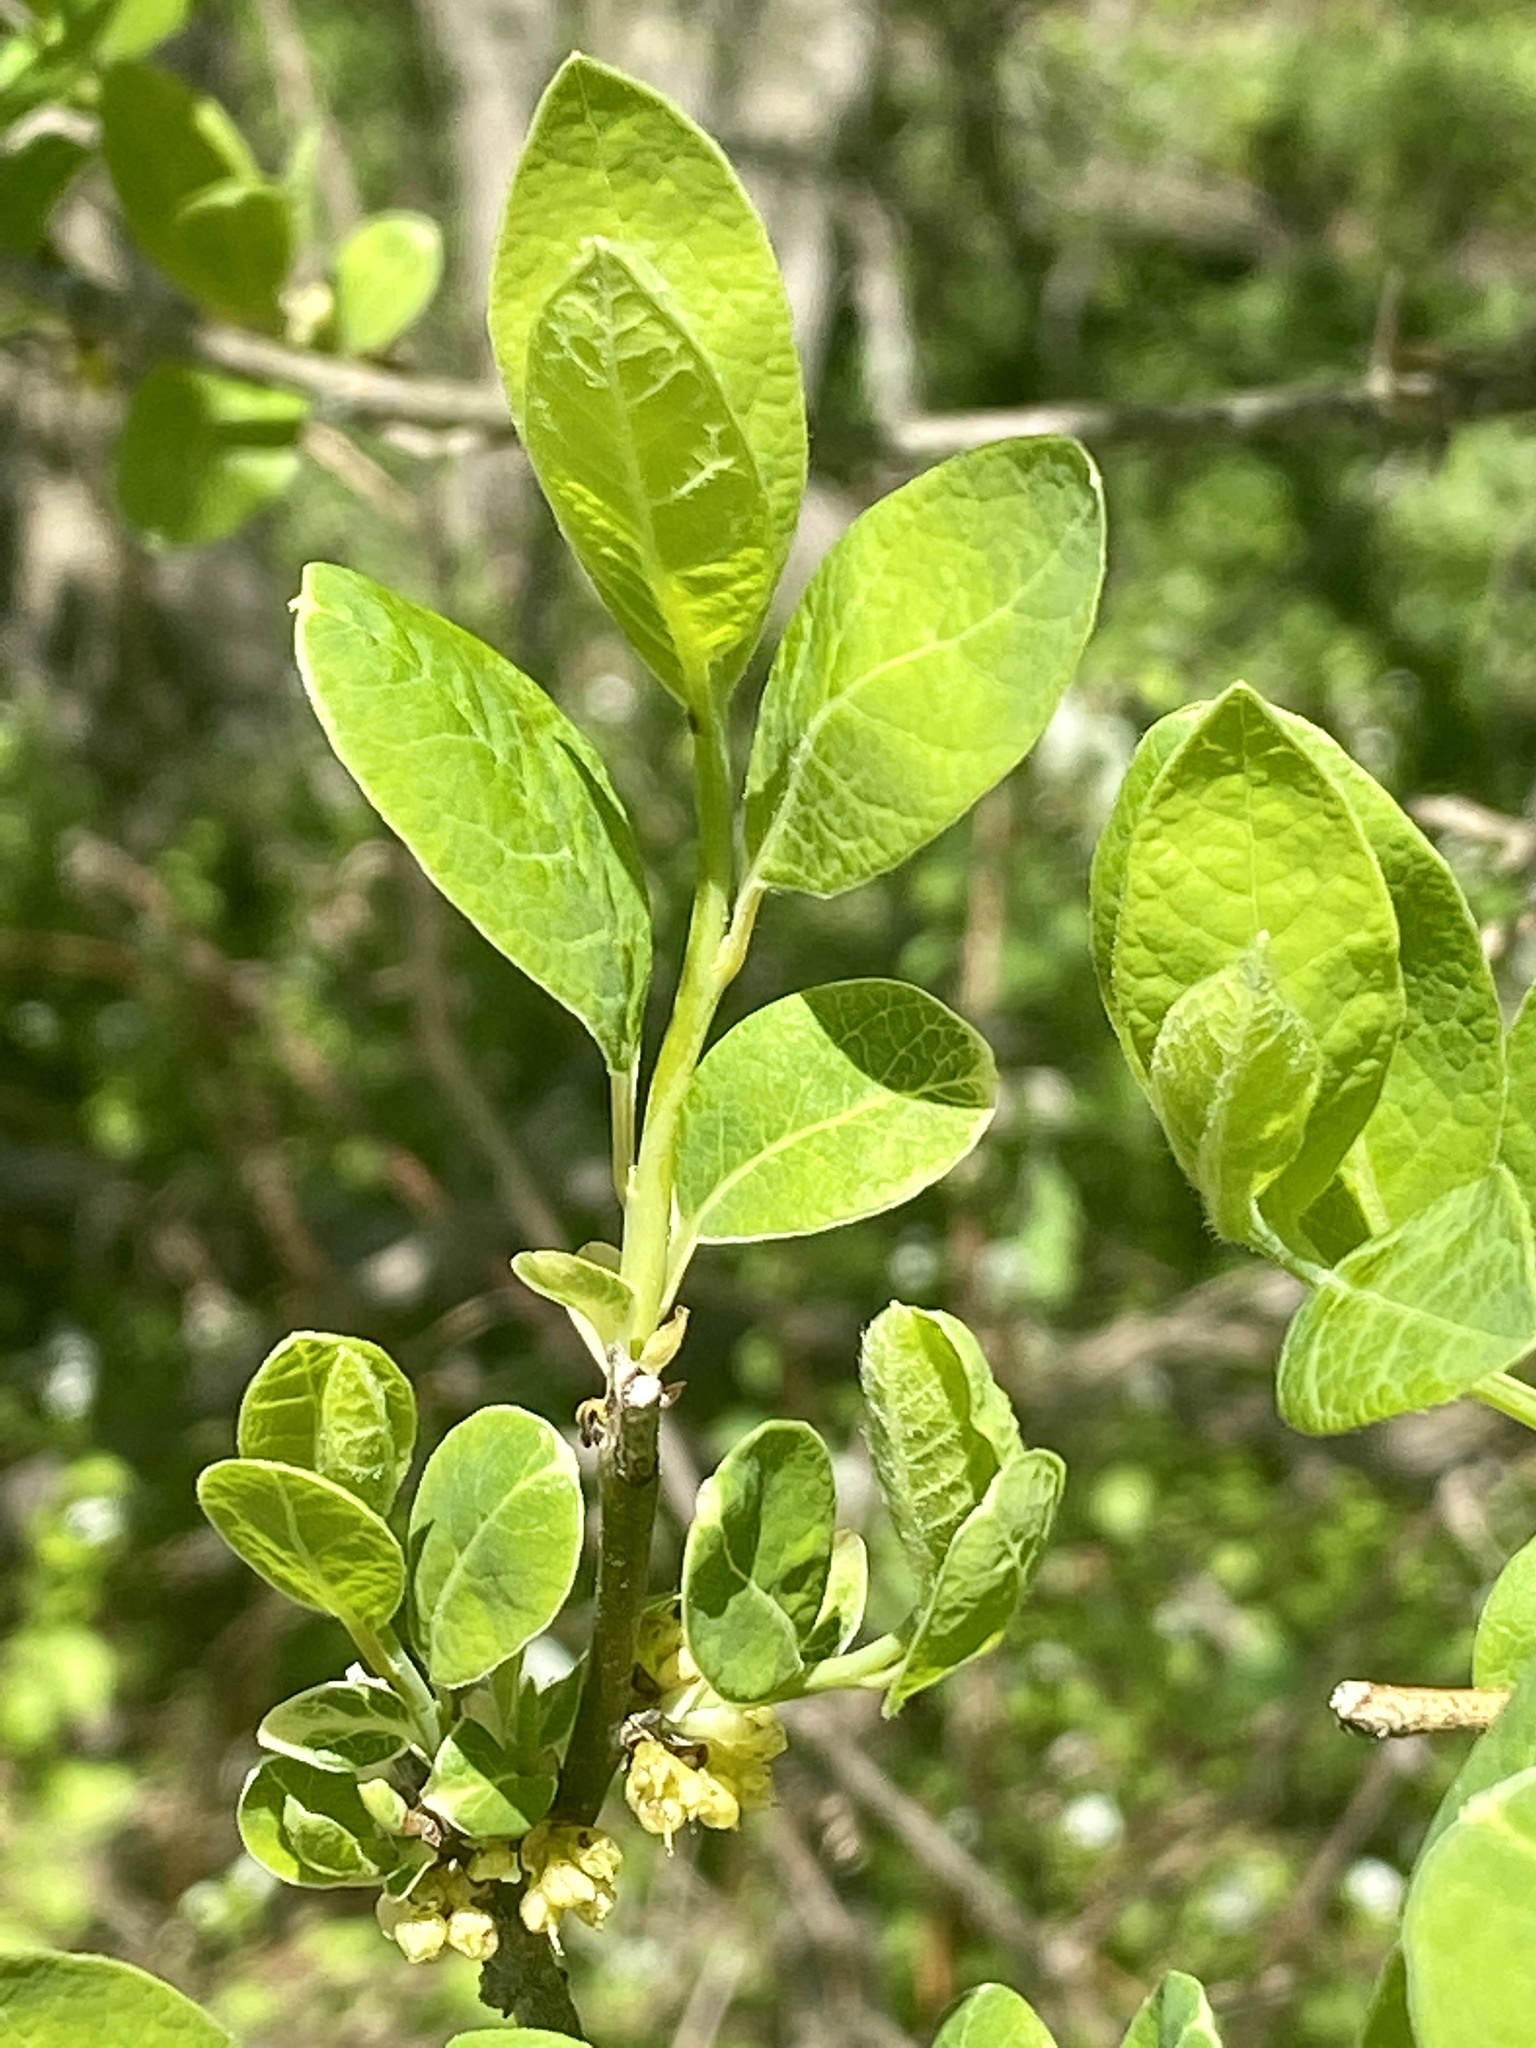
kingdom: Plantae
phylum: Tracheophyta
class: Magnoliopsida
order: Laurales
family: Lauraceae
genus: Lindera
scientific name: Lindera benzoin
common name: Spicebush
